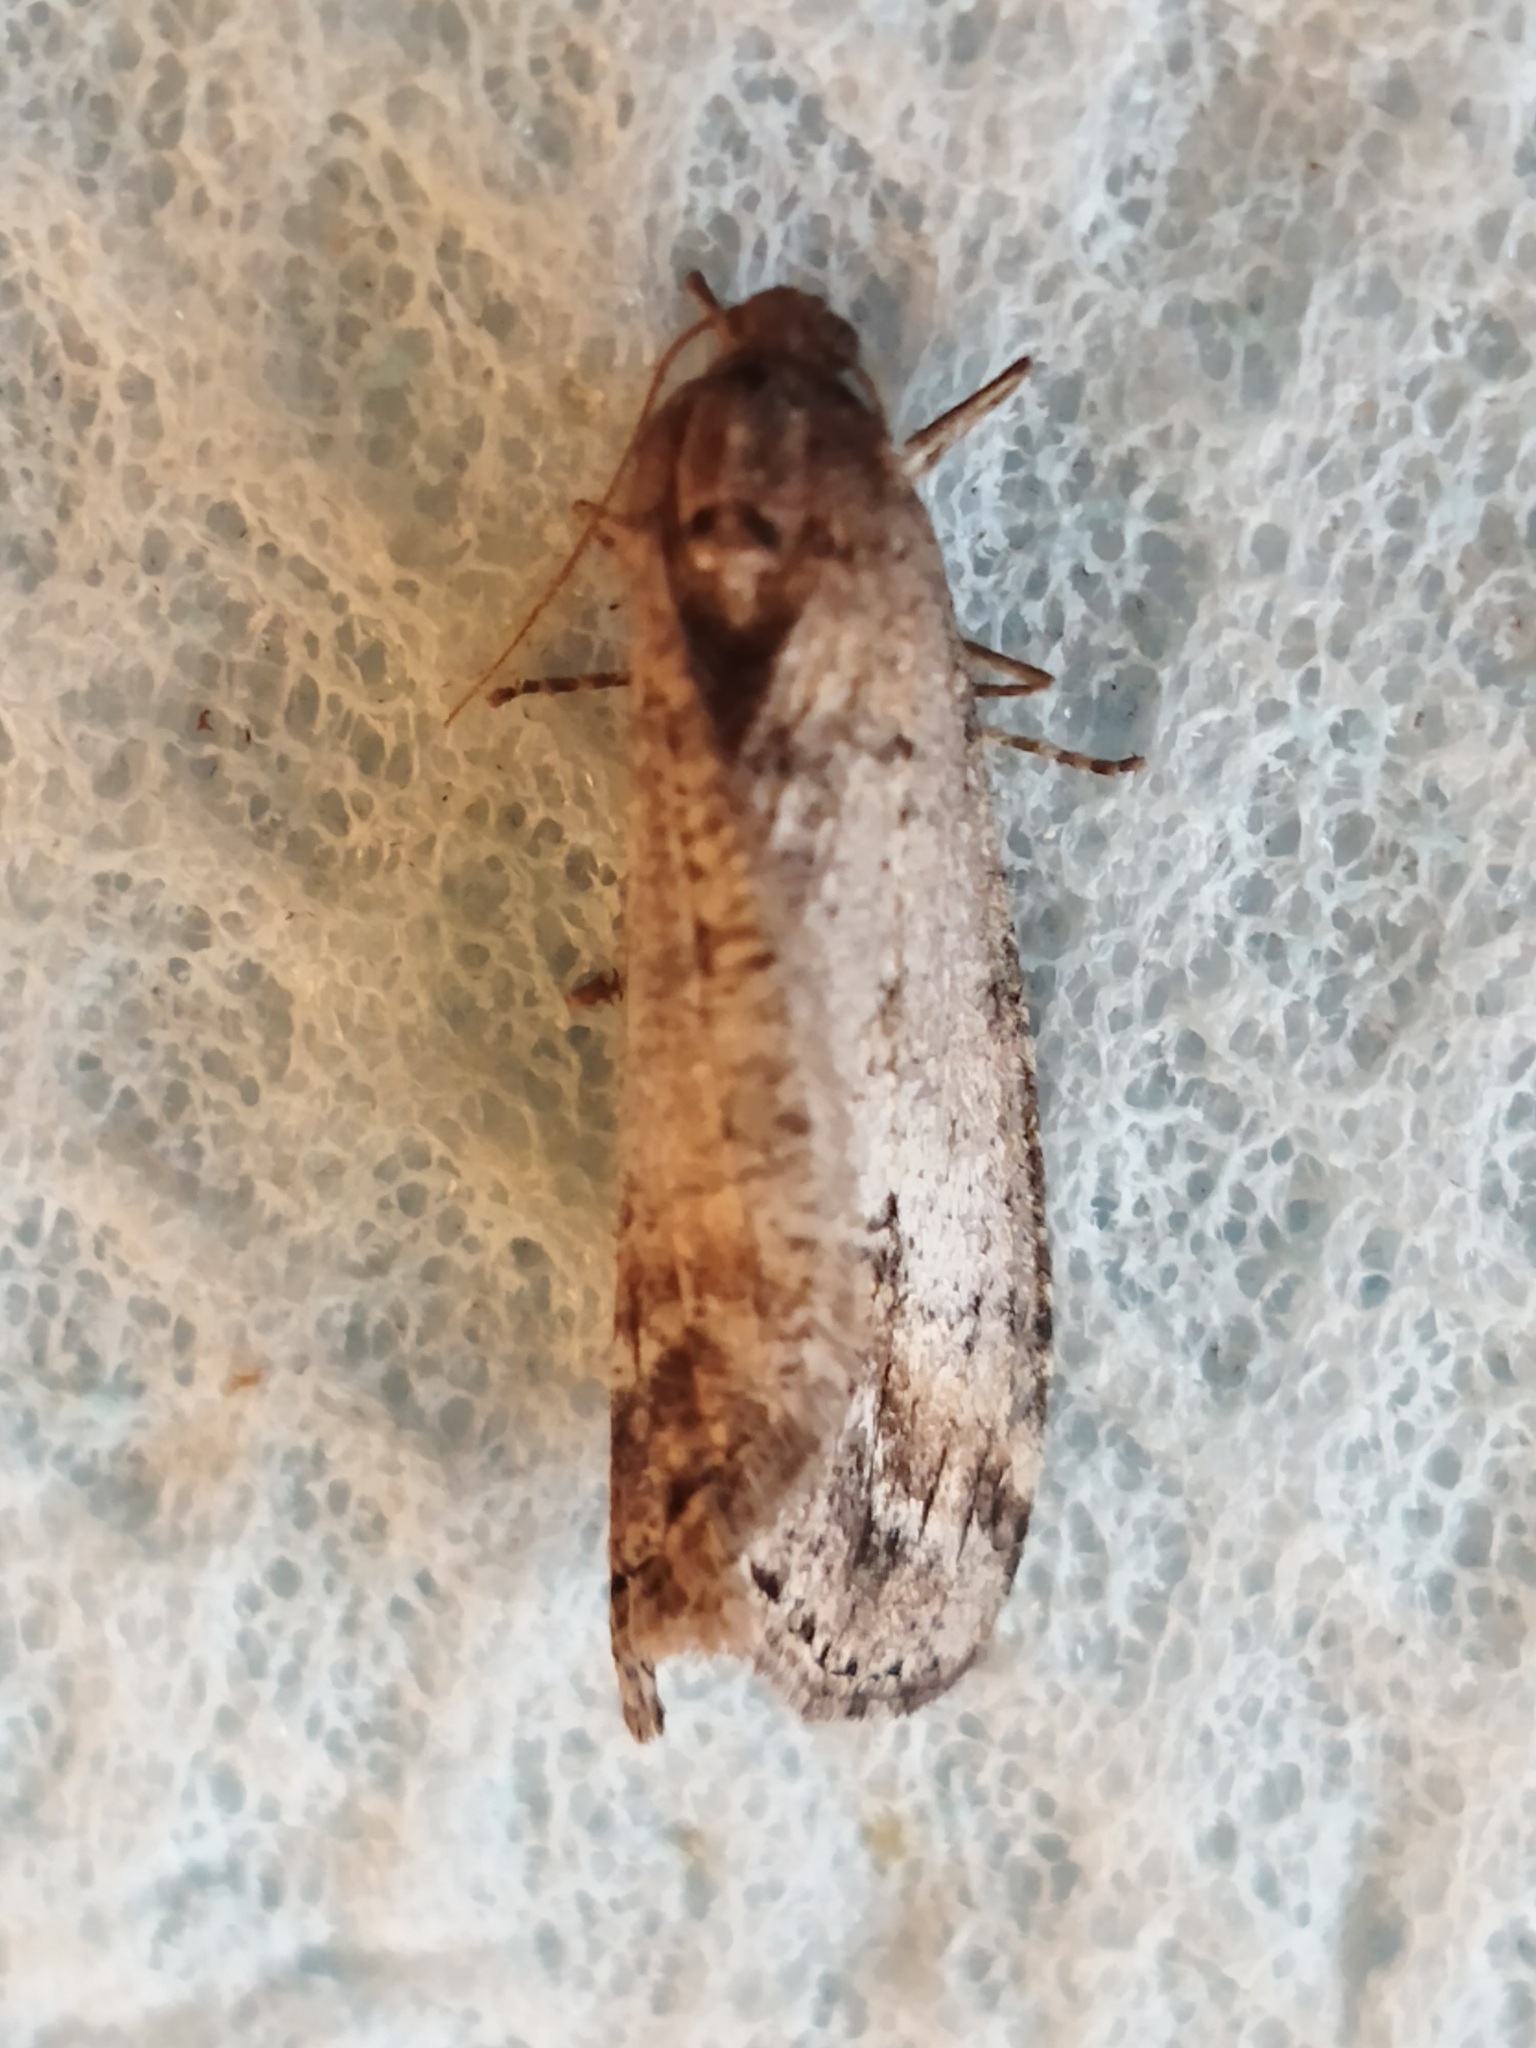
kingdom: Animalia
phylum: Arthropoda
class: Insecta
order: Lepidoptera
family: Geometridae
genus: Erannis
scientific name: Erannis declinans
